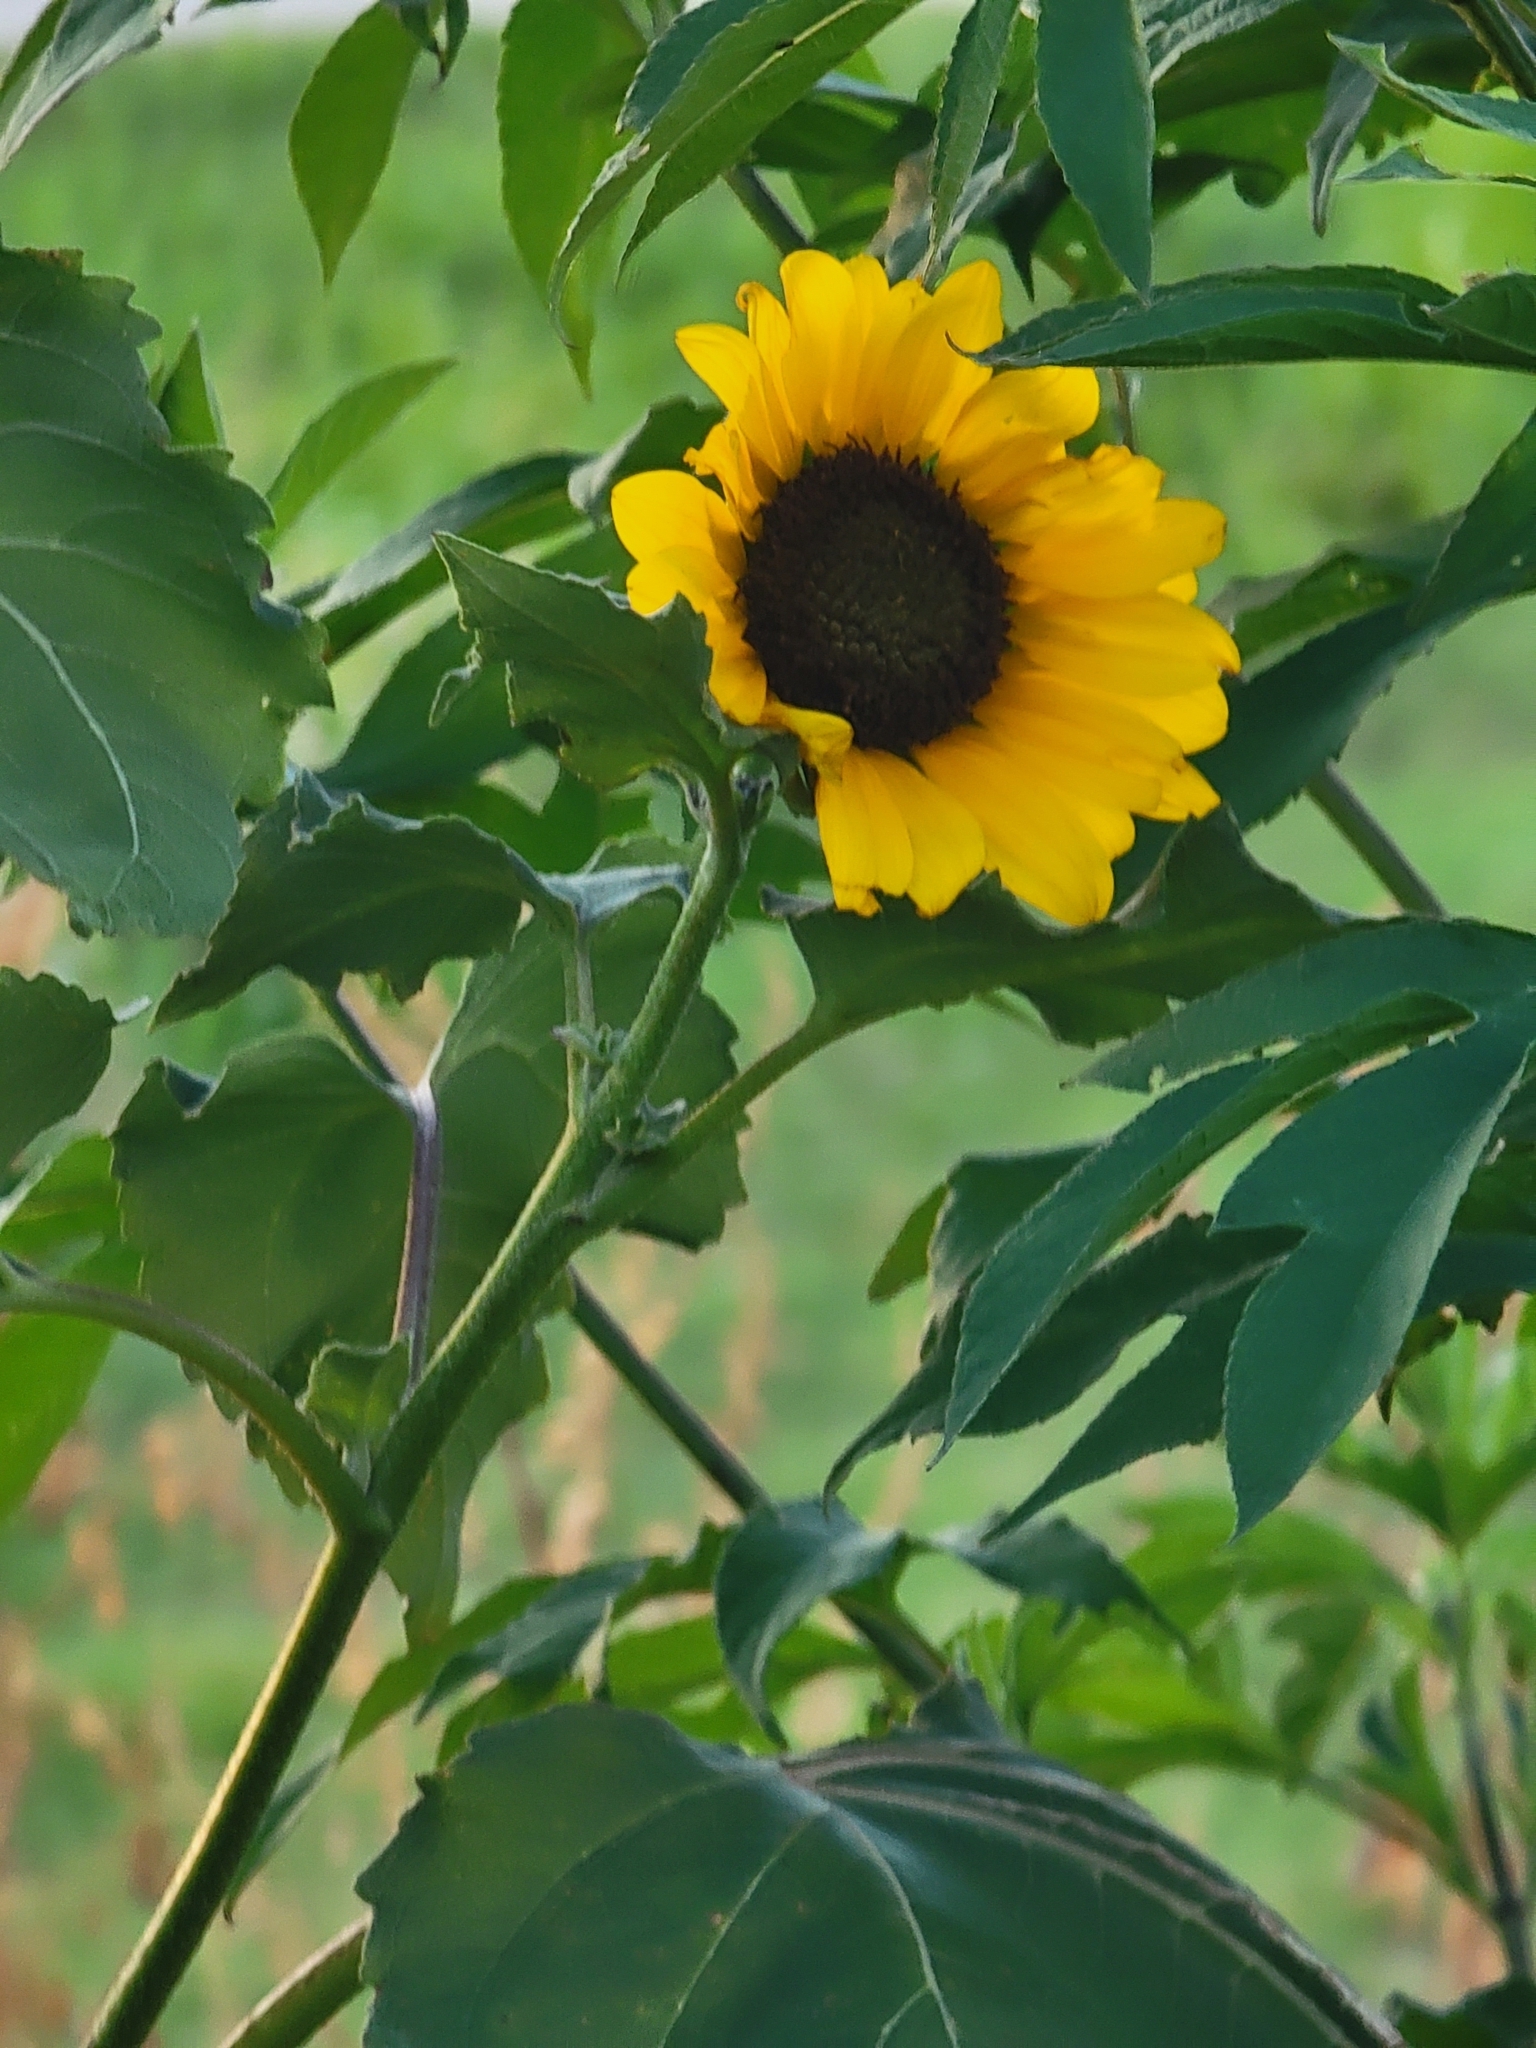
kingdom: Plantae
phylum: Tracheophyta
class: Magnoliopsida
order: Asterales
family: Asteraceae
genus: Helianthus
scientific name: Helianthus annuus
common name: Sunflower
